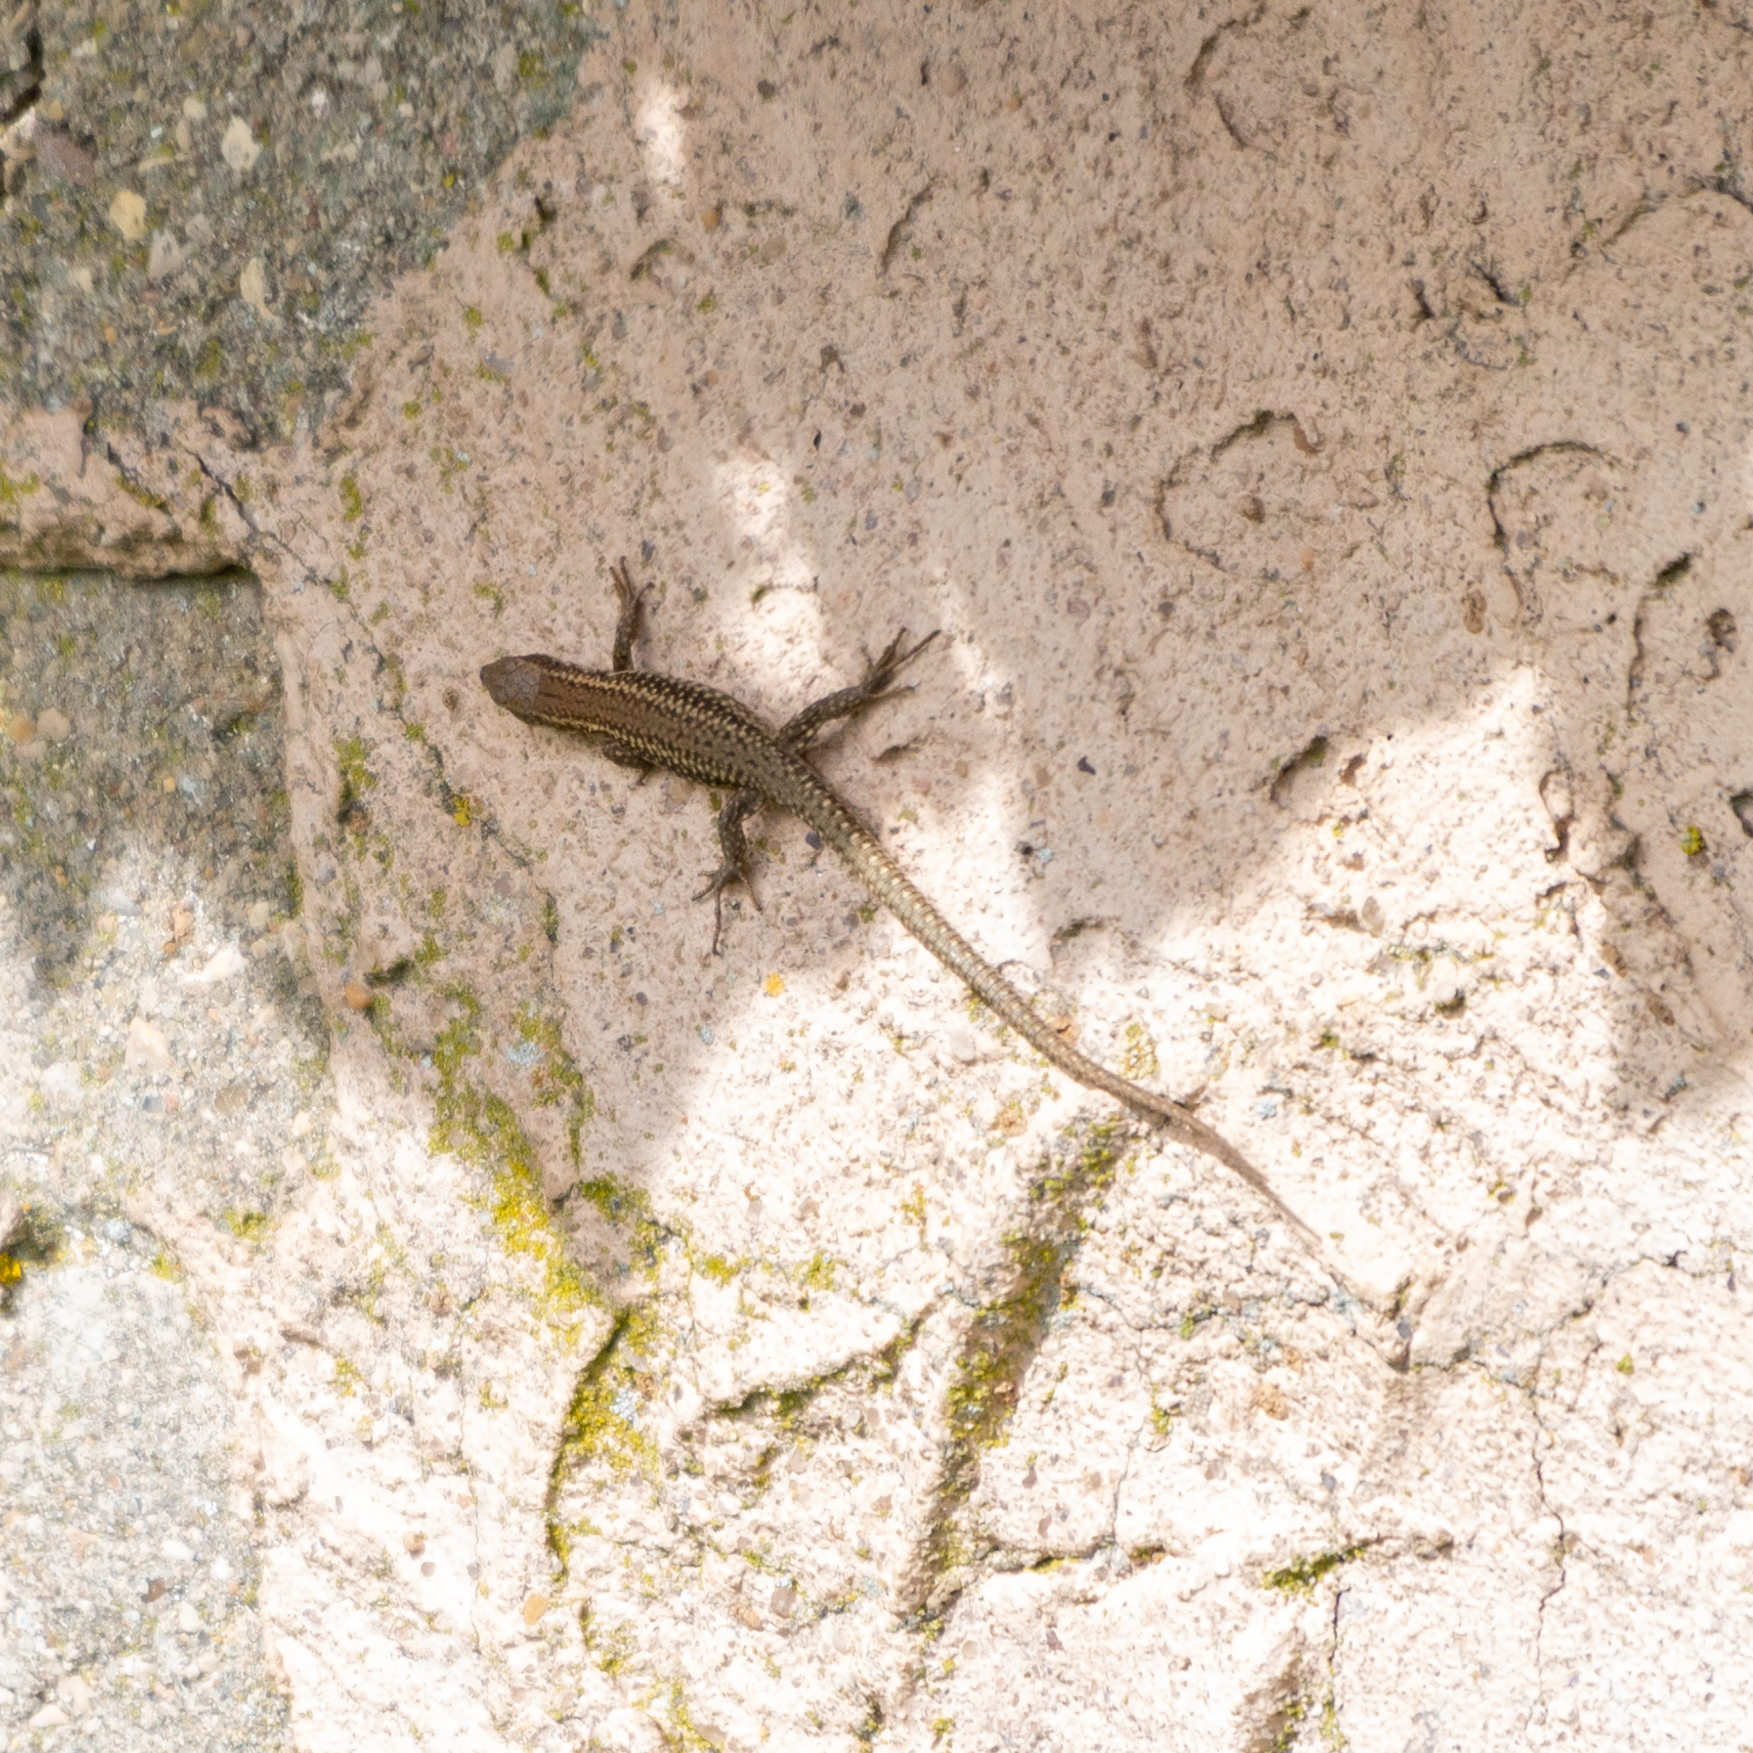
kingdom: Animalia
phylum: Chordata
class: Squamata
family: Lacertidae
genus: Podarcis
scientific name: Podarcis liolepis
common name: Catalonian wall lizard
